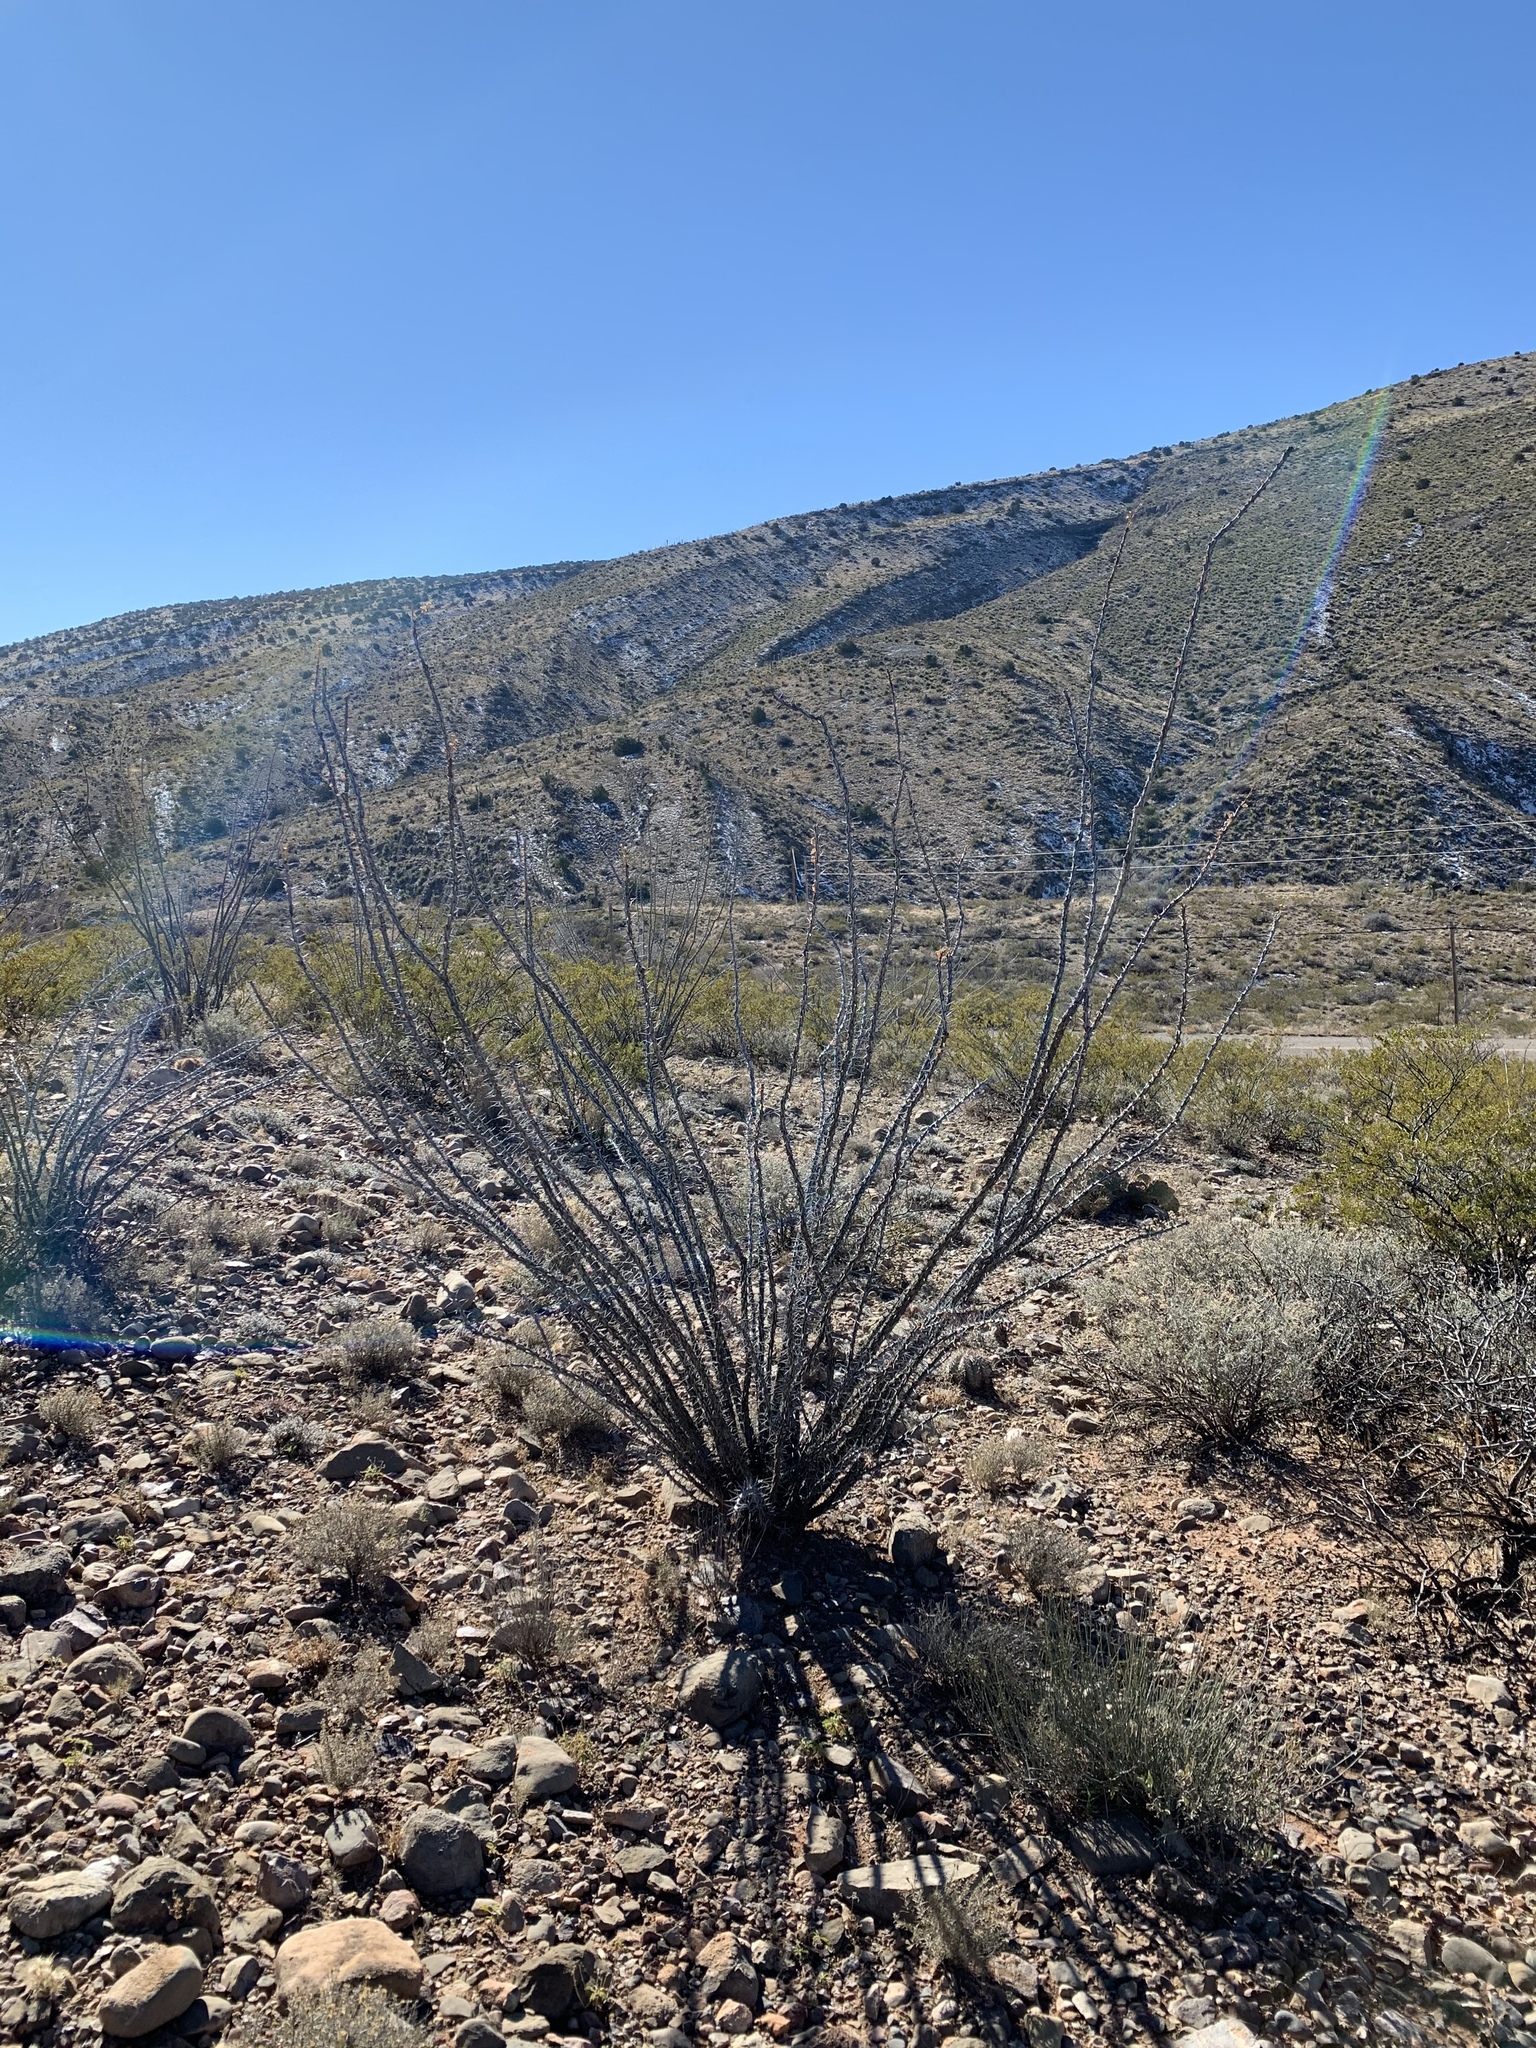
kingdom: Plantae
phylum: Tracheophyta
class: Magnoliopsida
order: Ericales
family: Fouquieriaceae
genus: Fouquieria
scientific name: Fouquieria splendens
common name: Vine-cactus
